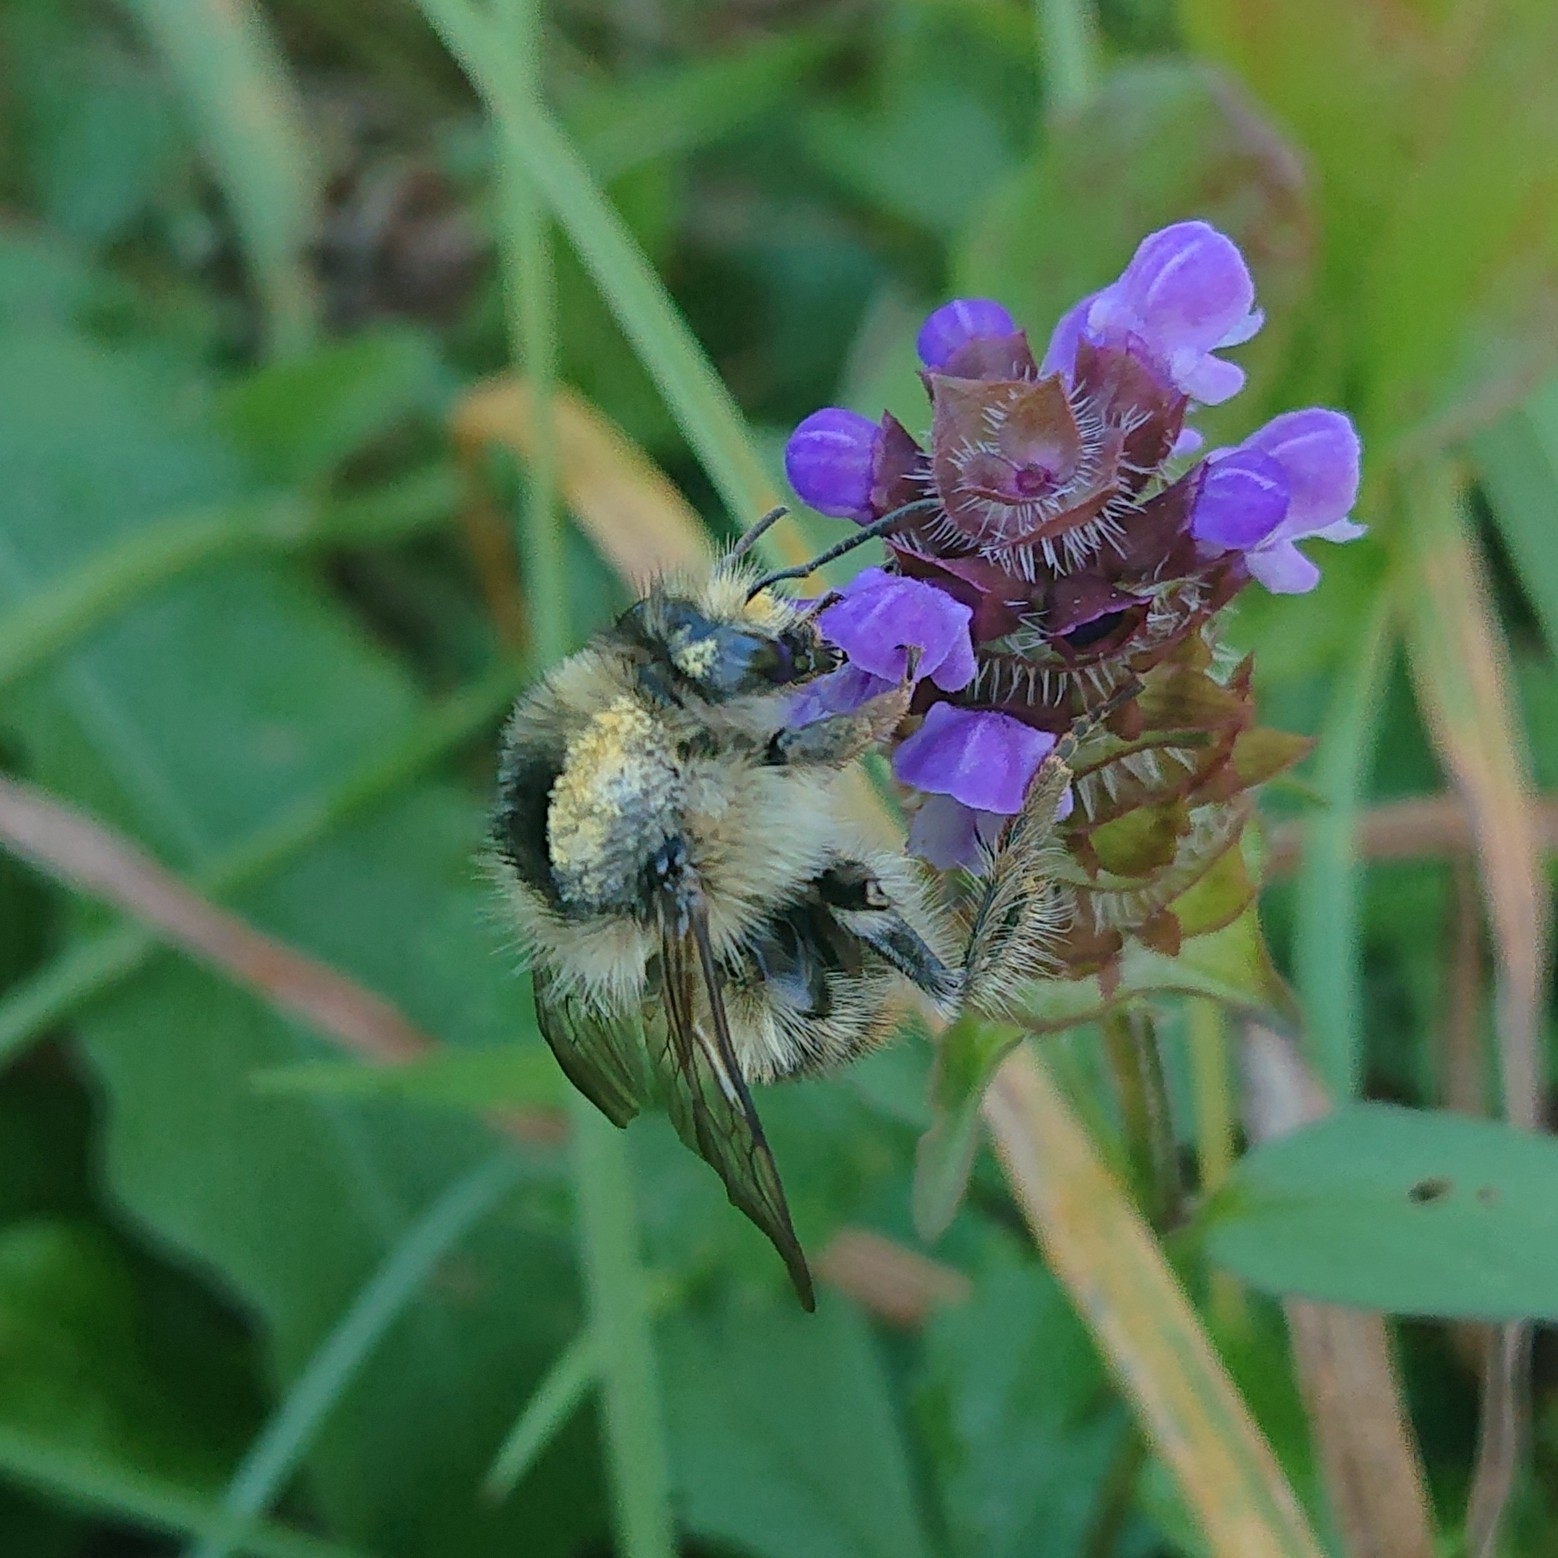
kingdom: Animalia
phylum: Arthropoda
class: Insecta
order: Hymenoptera
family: Apidae
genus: Bombus
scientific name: Bombus sylvarum
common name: Shrill carder bee
